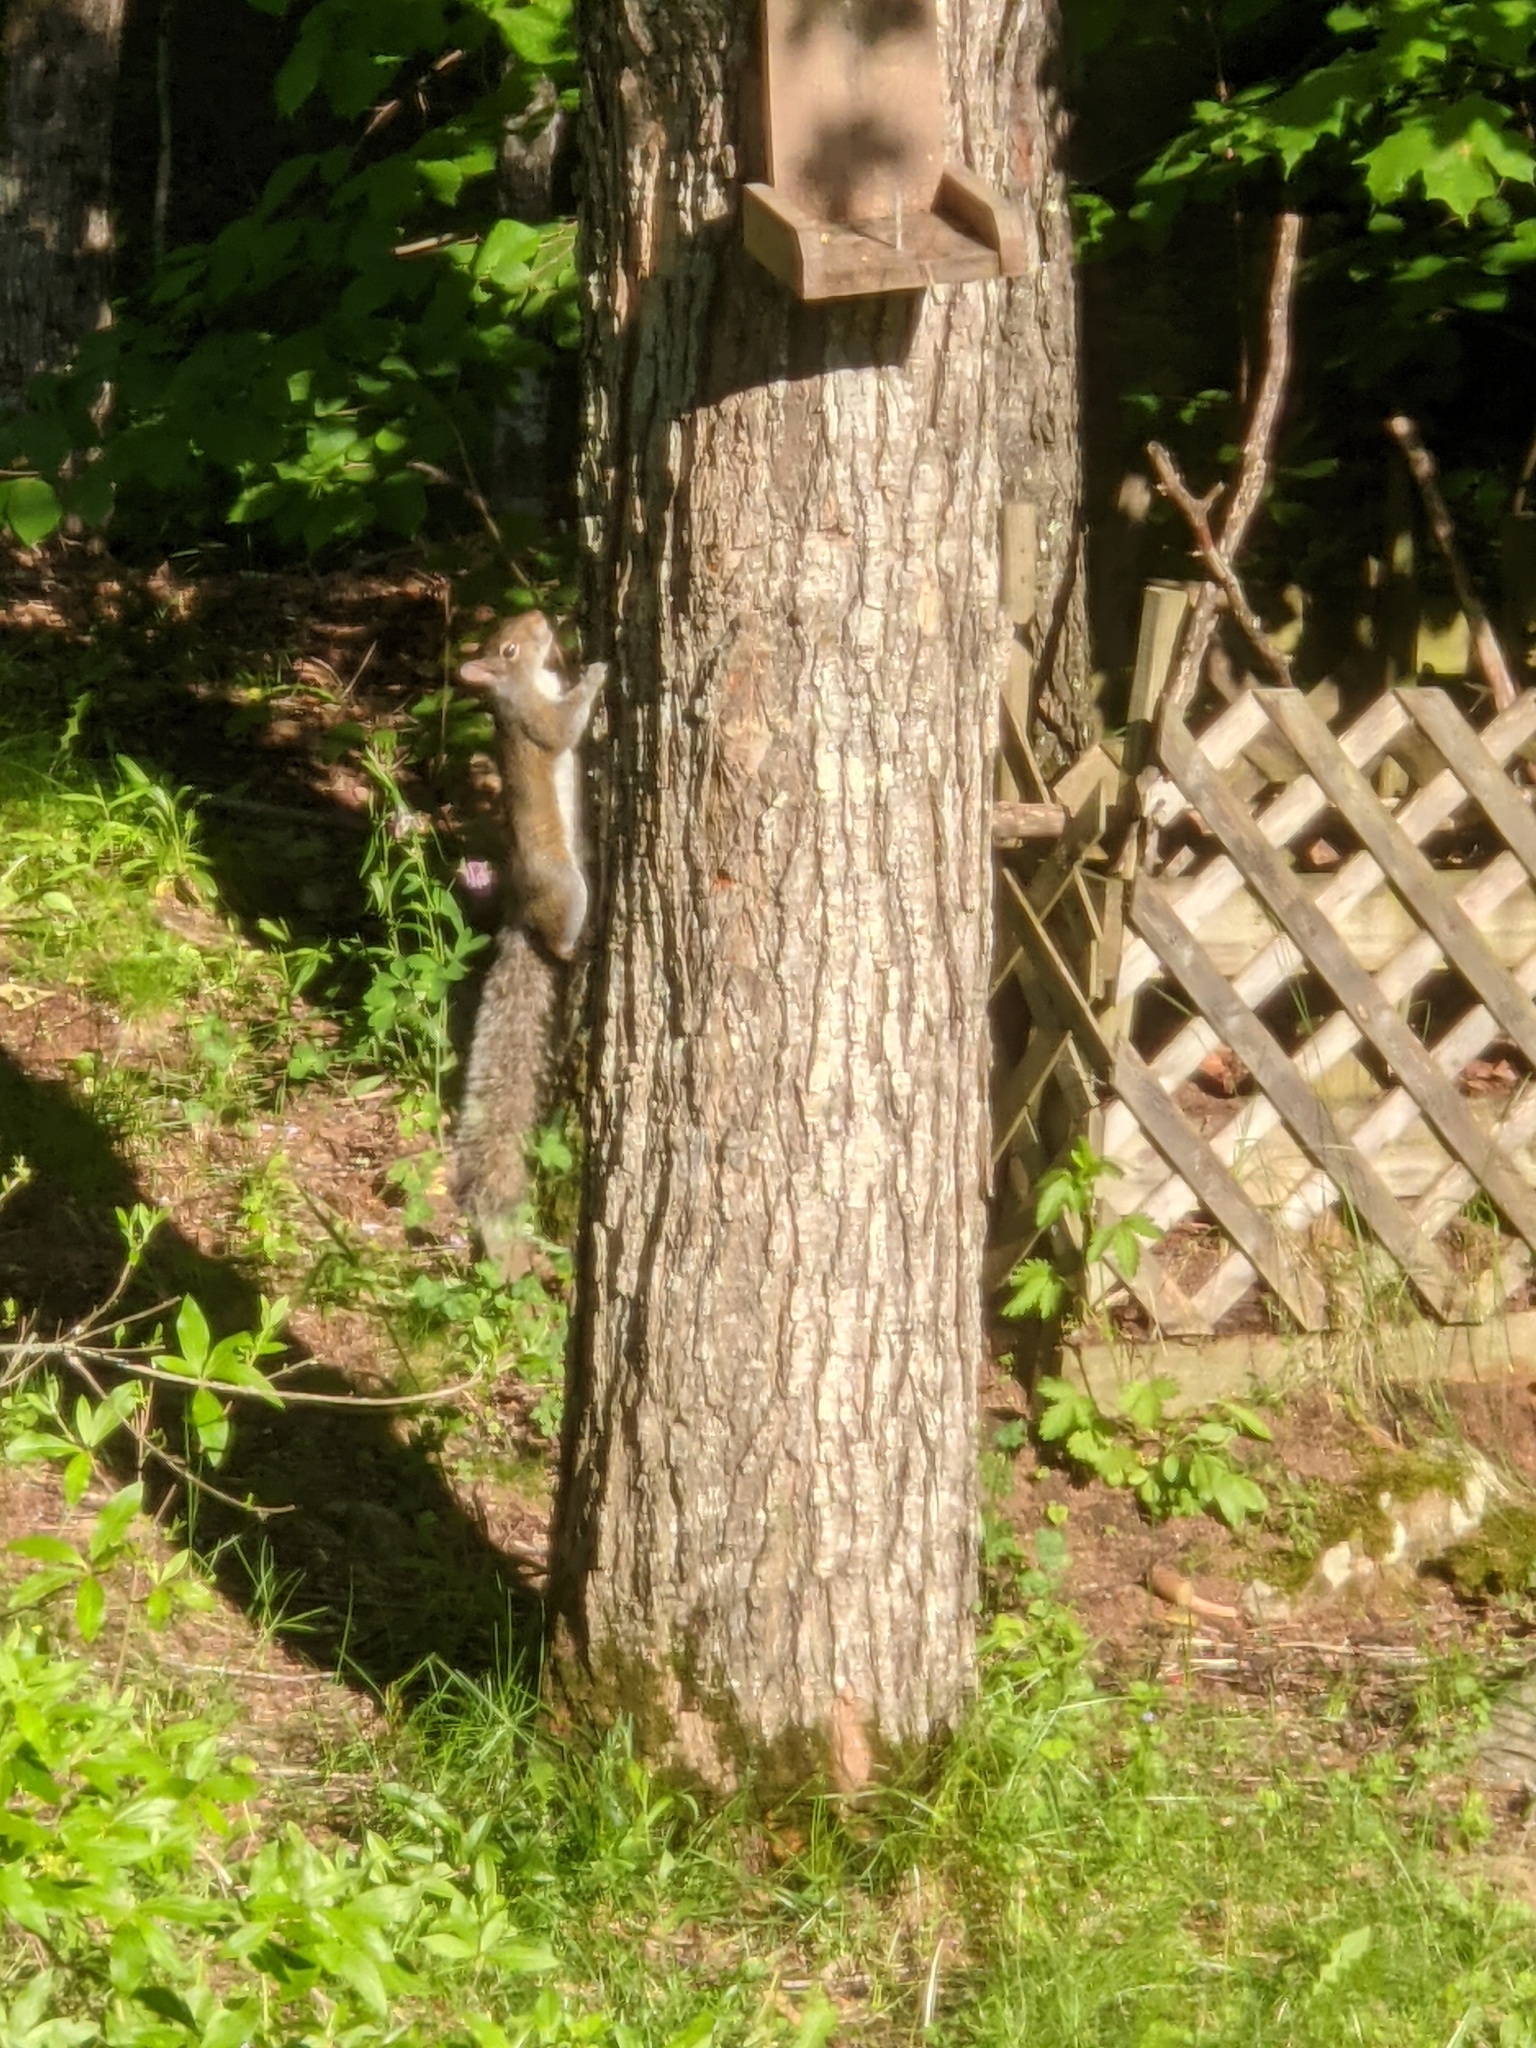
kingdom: Animalia
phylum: Chordata
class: Mammalia
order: Rodentia
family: Sciuridae
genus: Sciurus
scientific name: Sciurus carolinensis
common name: Eastern gray squirrel
